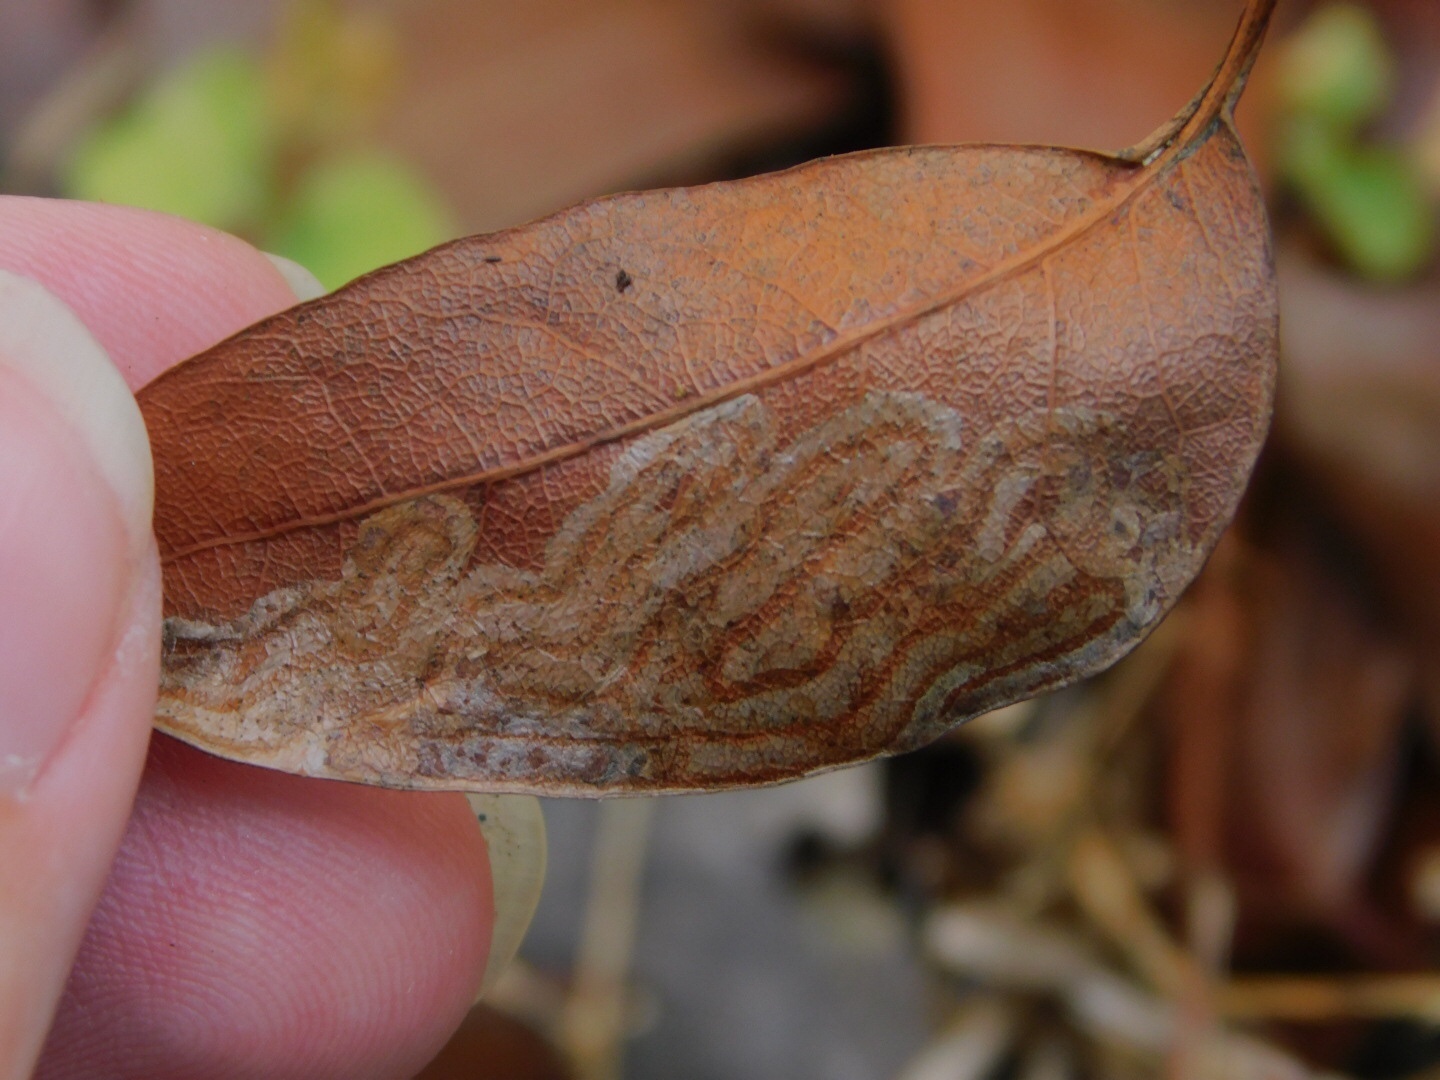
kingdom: Animalia
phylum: Arthropoda
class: Insecta
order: Lepidoptera
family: Gracillariidae
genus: Phyllocnistis
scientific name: Phyllocnistis meliacella
